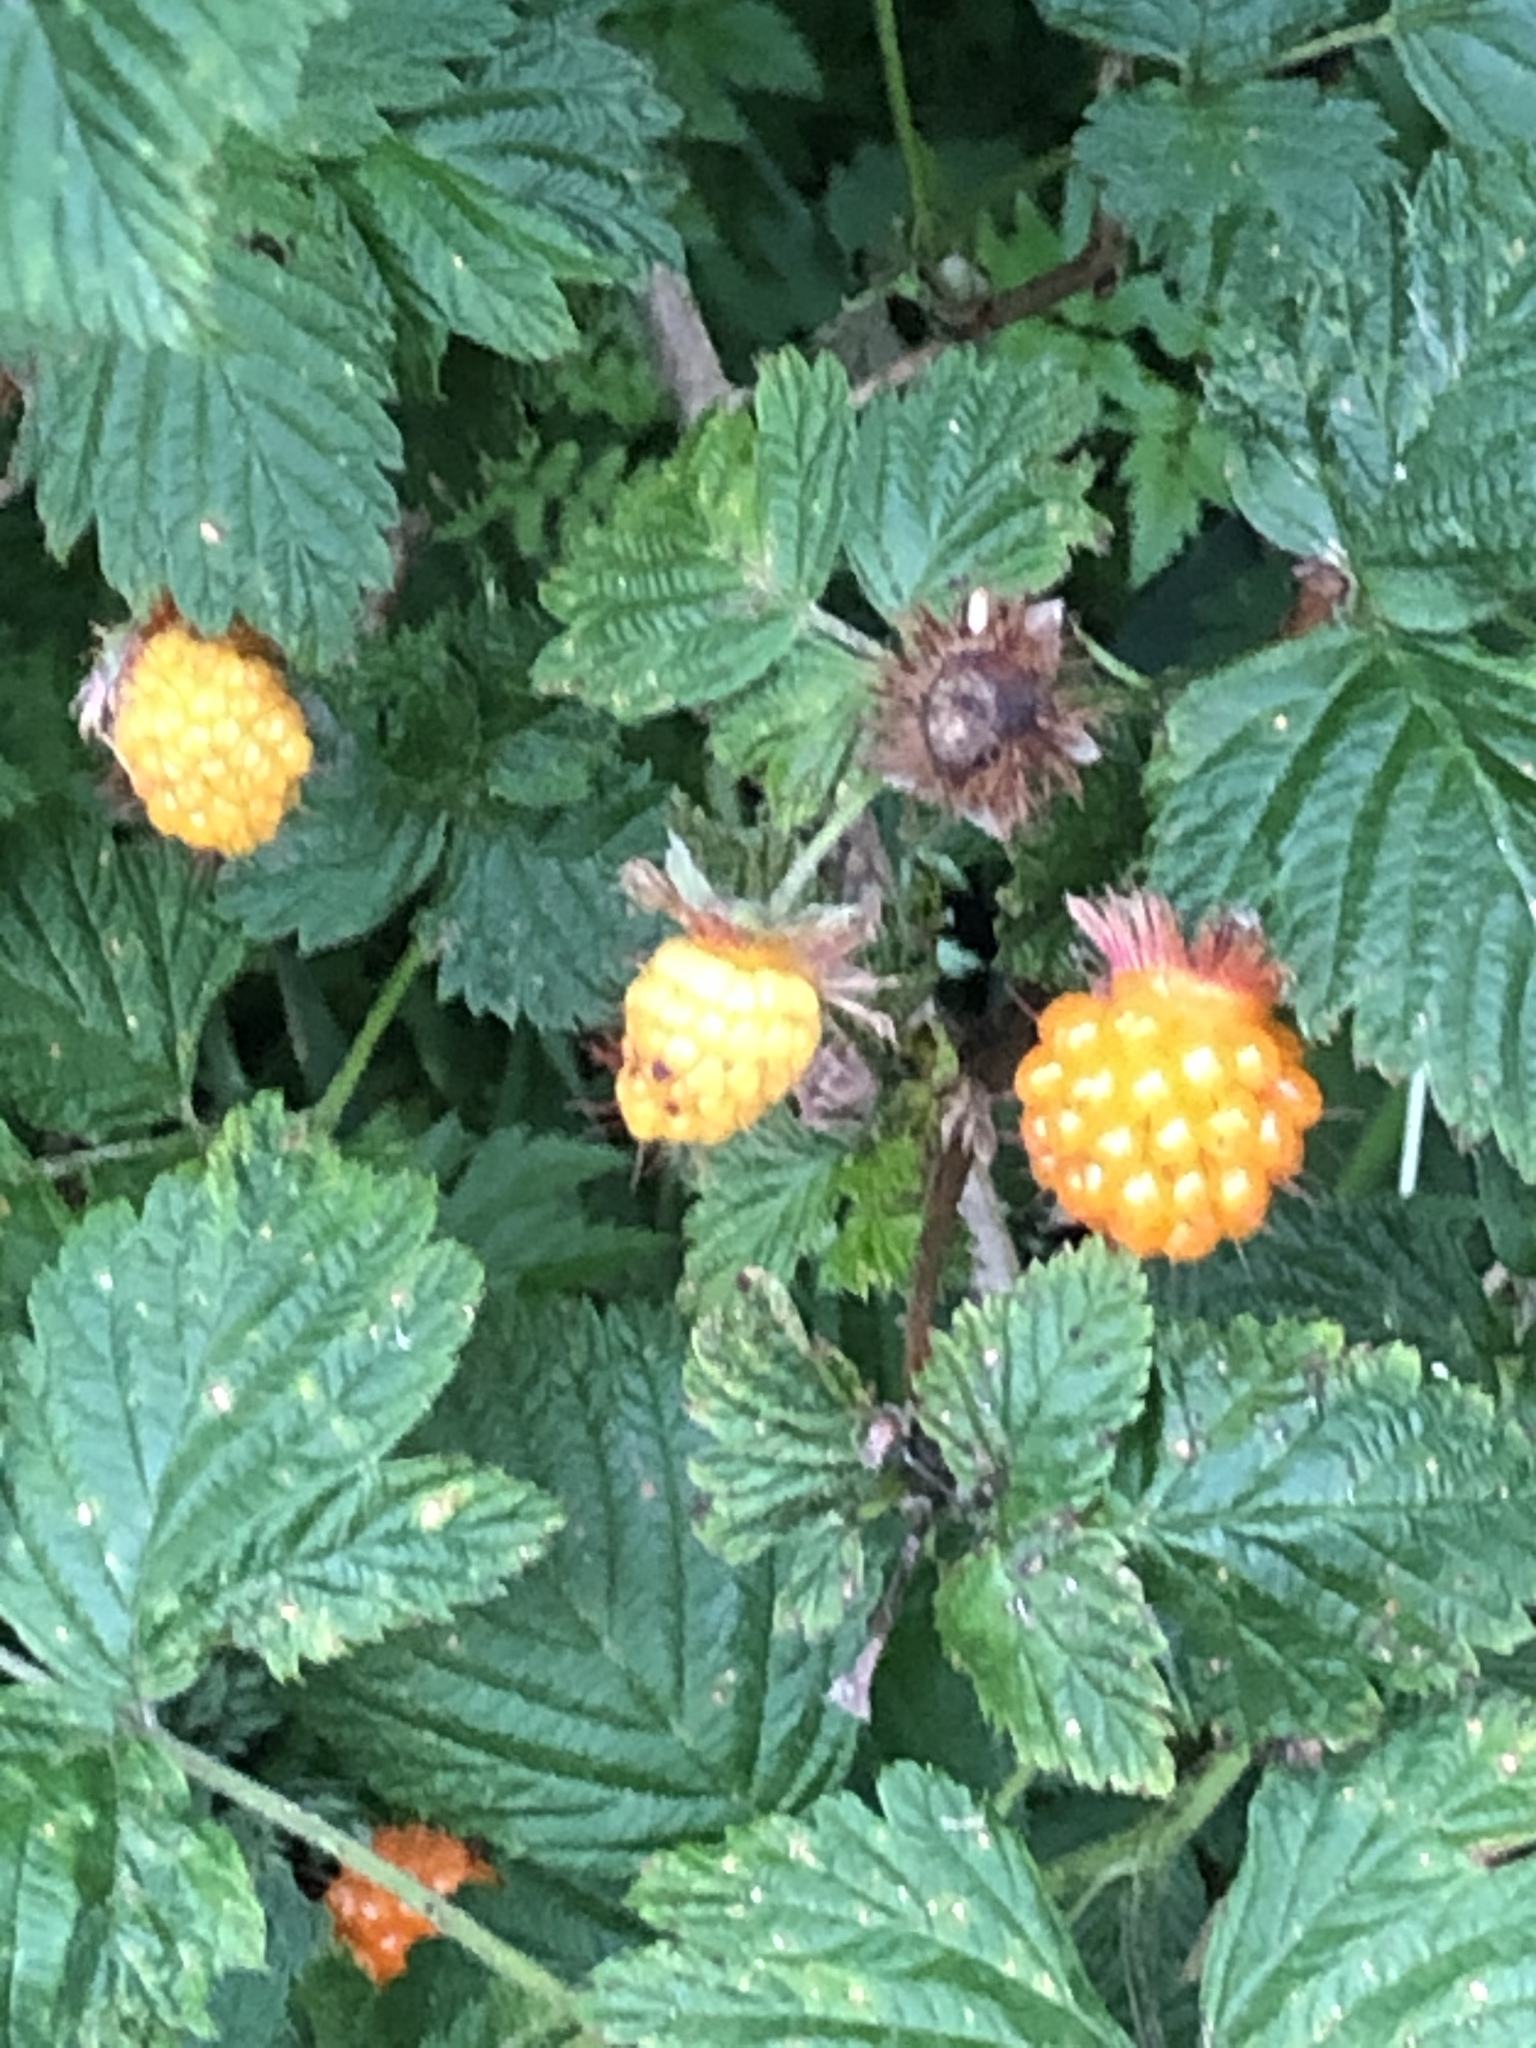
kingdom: Plantae
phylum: Tracheophyta
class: Magnoliopsida
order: Rosales
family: Rosaceae
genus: Rubus
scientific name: Rubus spectabilis
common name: Salmonberry
